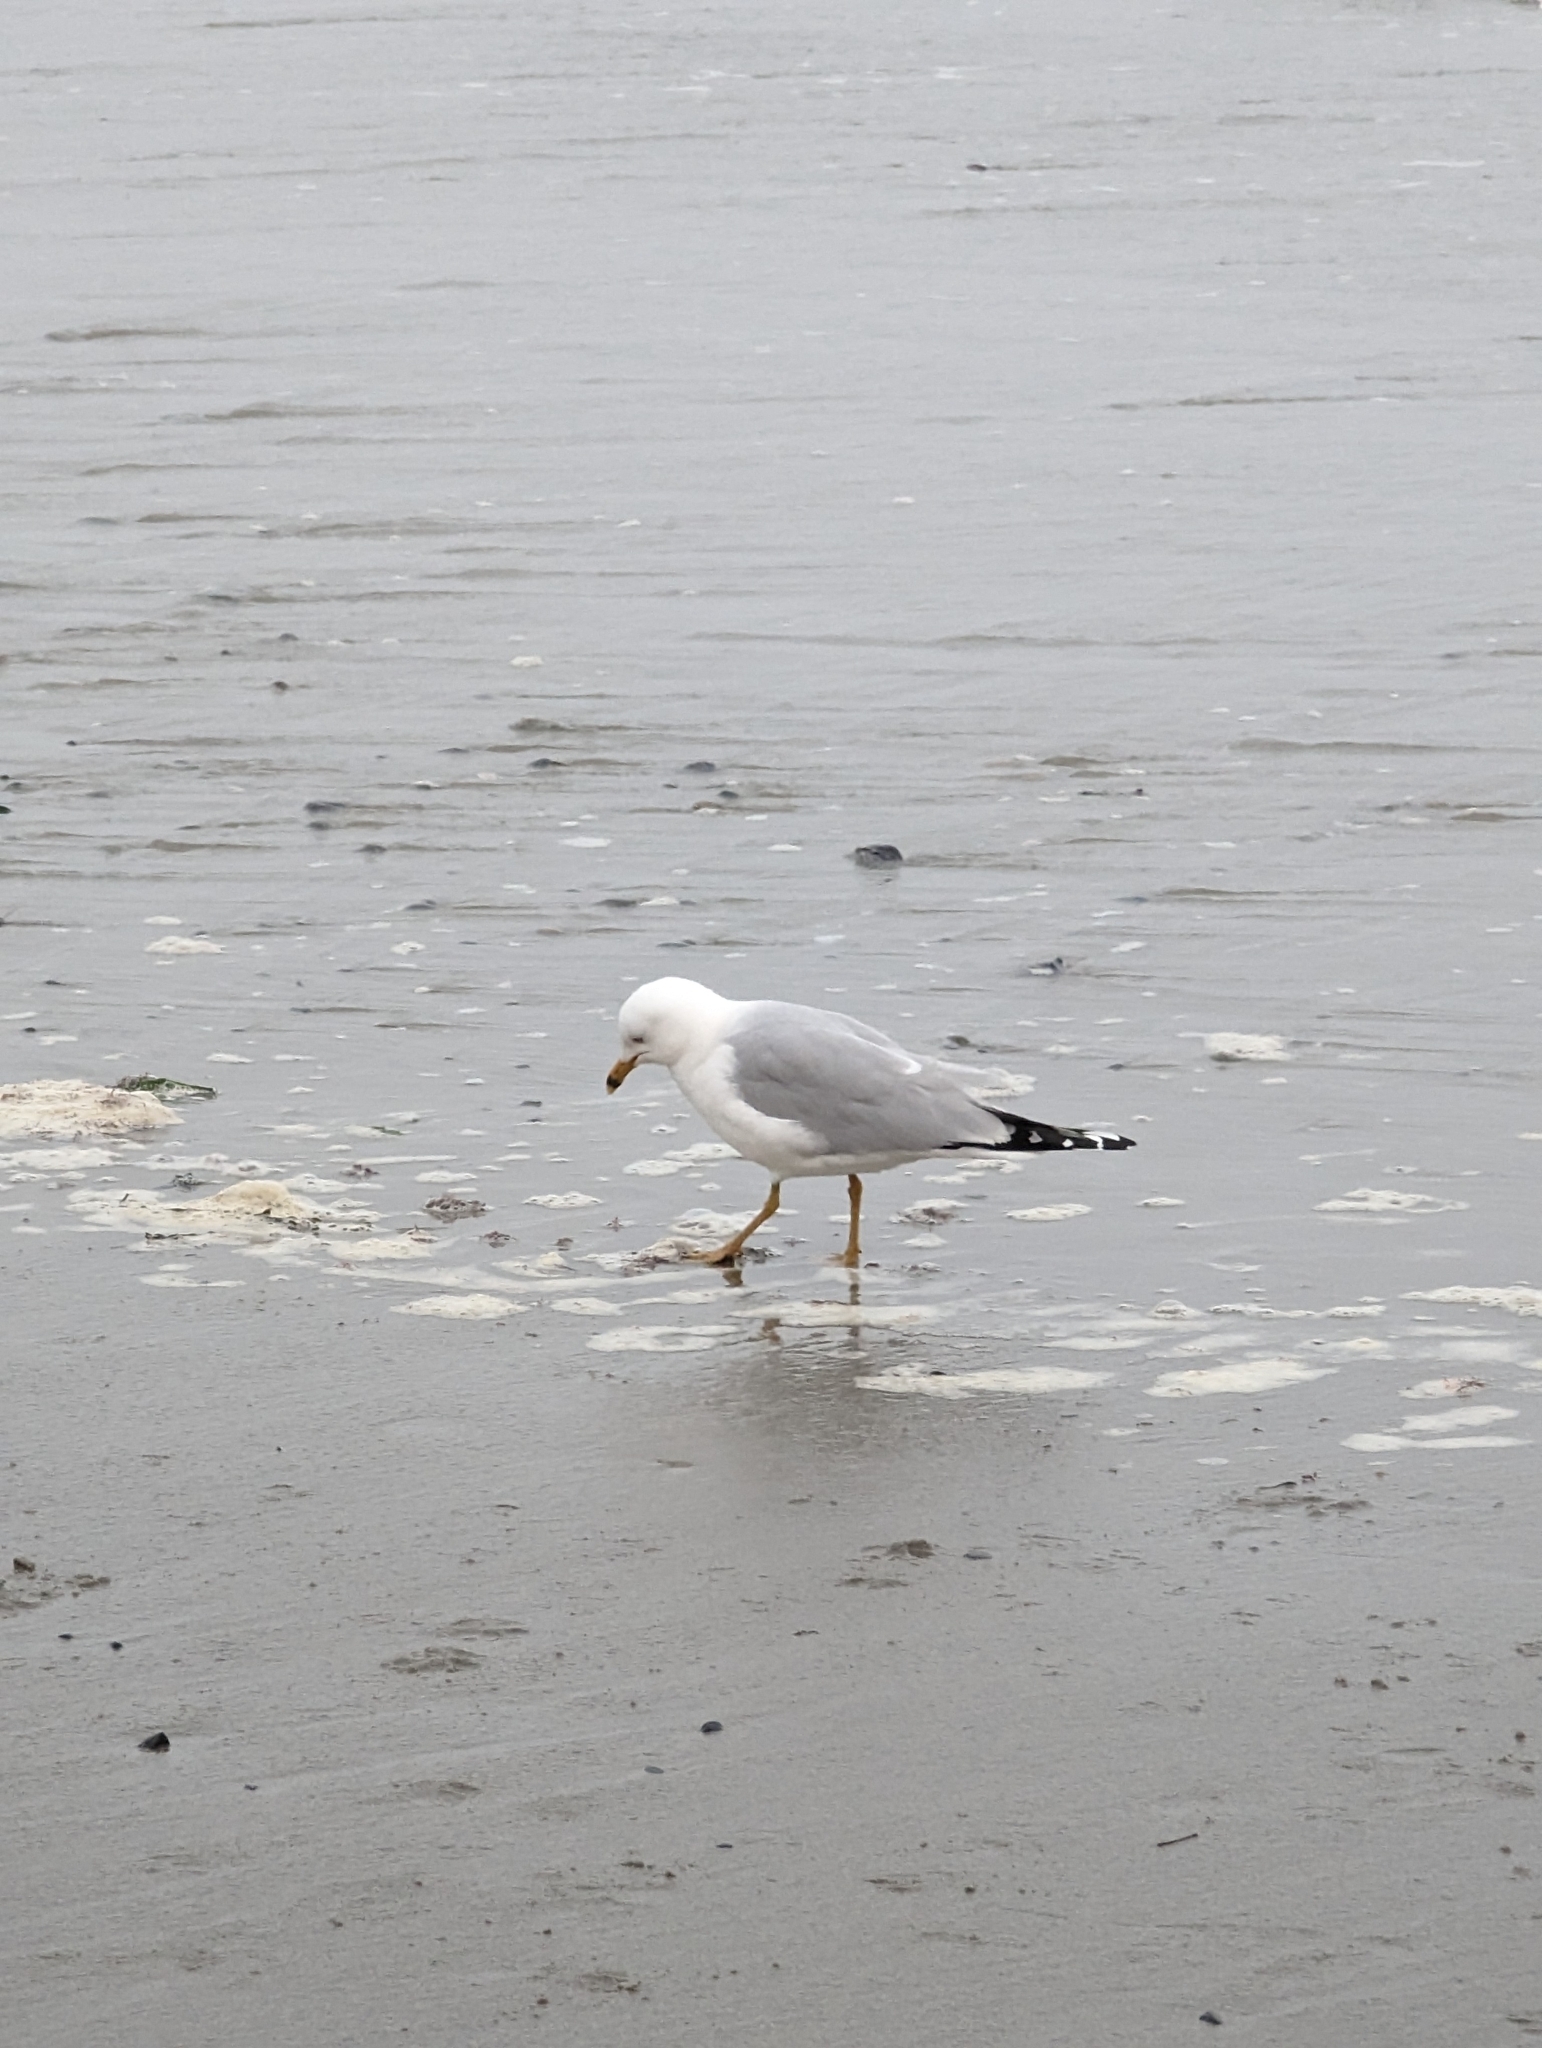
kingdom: Animalia
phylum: Chordata
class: Aves
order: Charadriiformes
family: Laridae
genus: Larus
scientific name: Larus delawarensis
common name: Ring-billed gull
